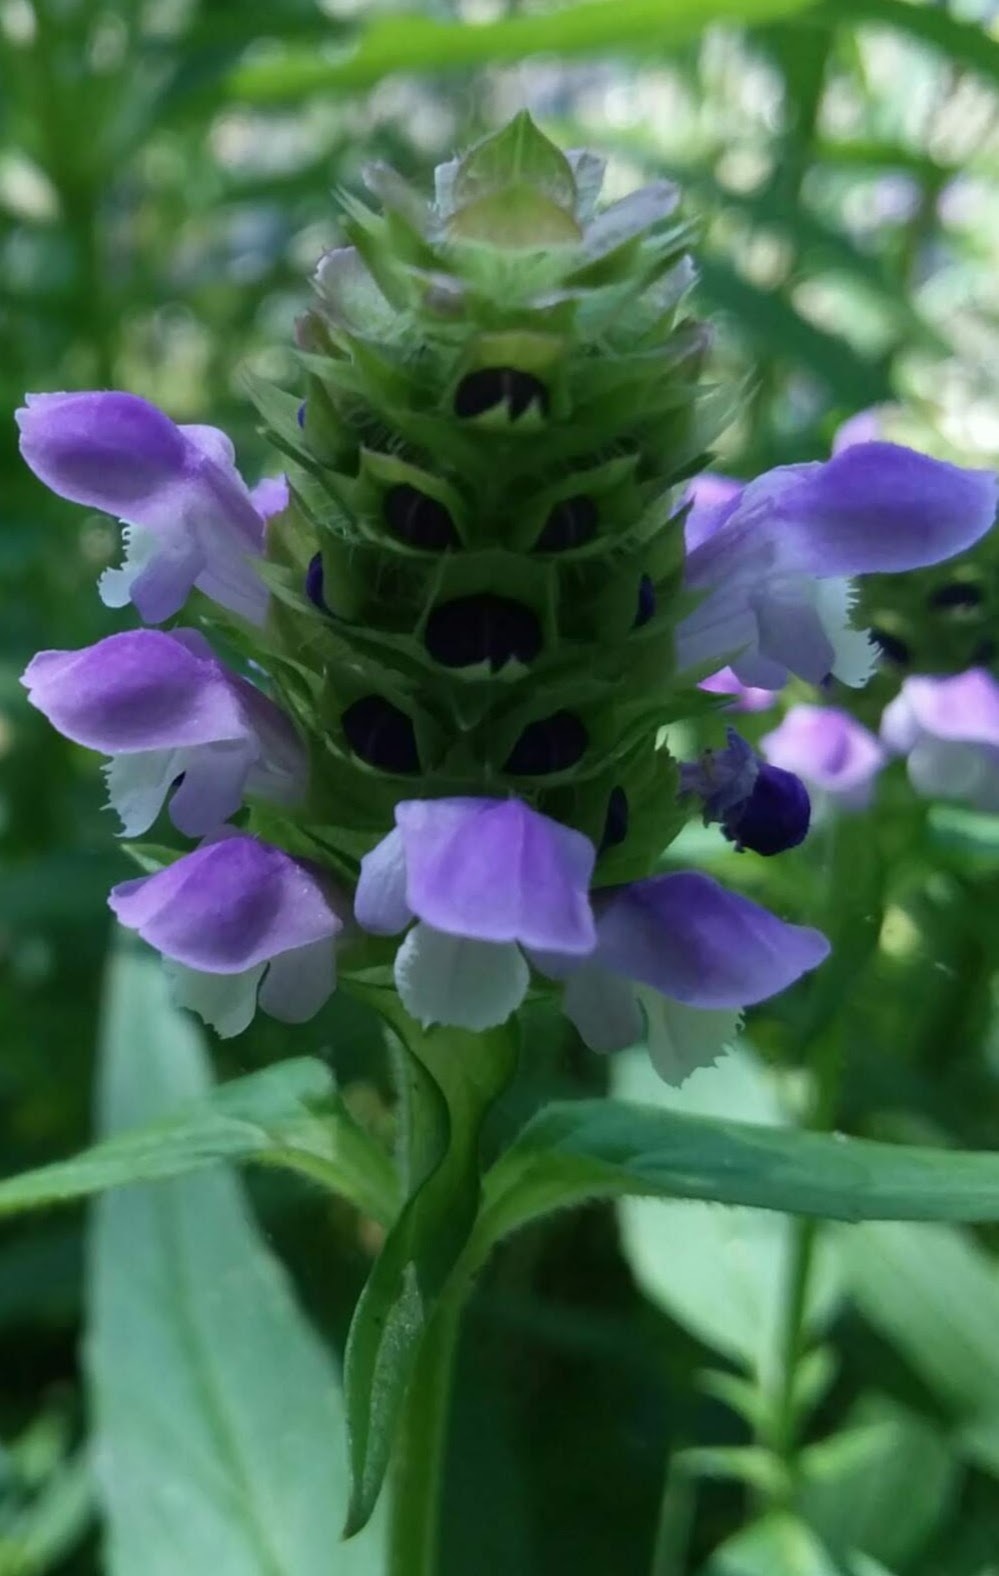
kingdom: Plantae
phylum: Tracheophyta
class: Magnoliopsida
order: Lamiales
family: Lamiaceae
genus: Prunella
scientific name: Prunella vulgaris
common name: Heal-all
